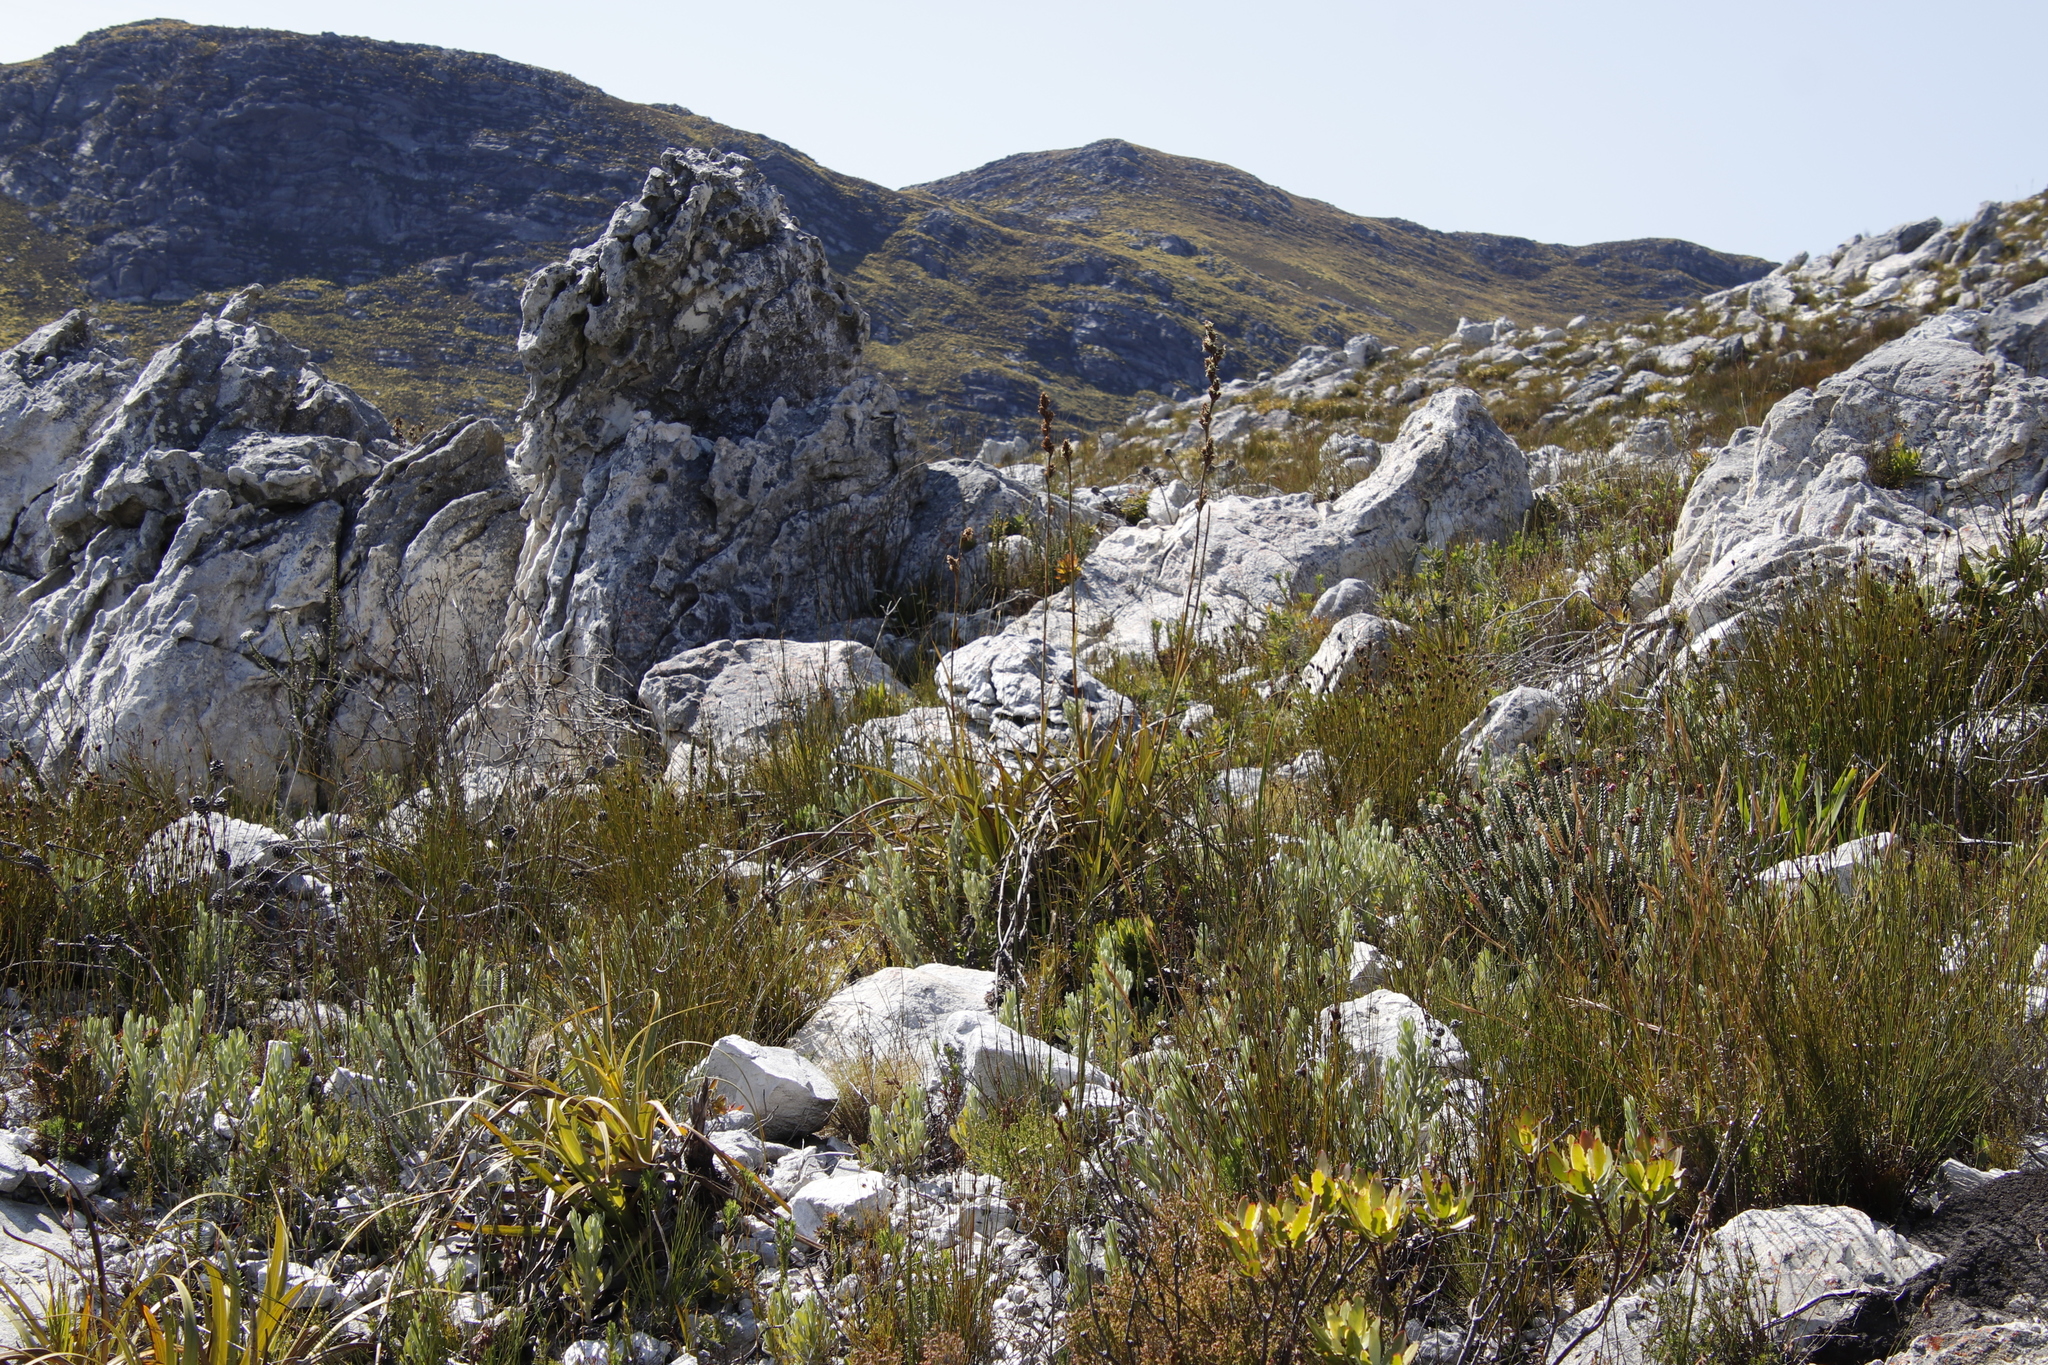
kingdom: Plantae
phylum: Tracheophyta
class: Liliopsida
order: Poales
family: Cyperaceae
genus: Tetraria
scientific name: Tetraria thermalis
